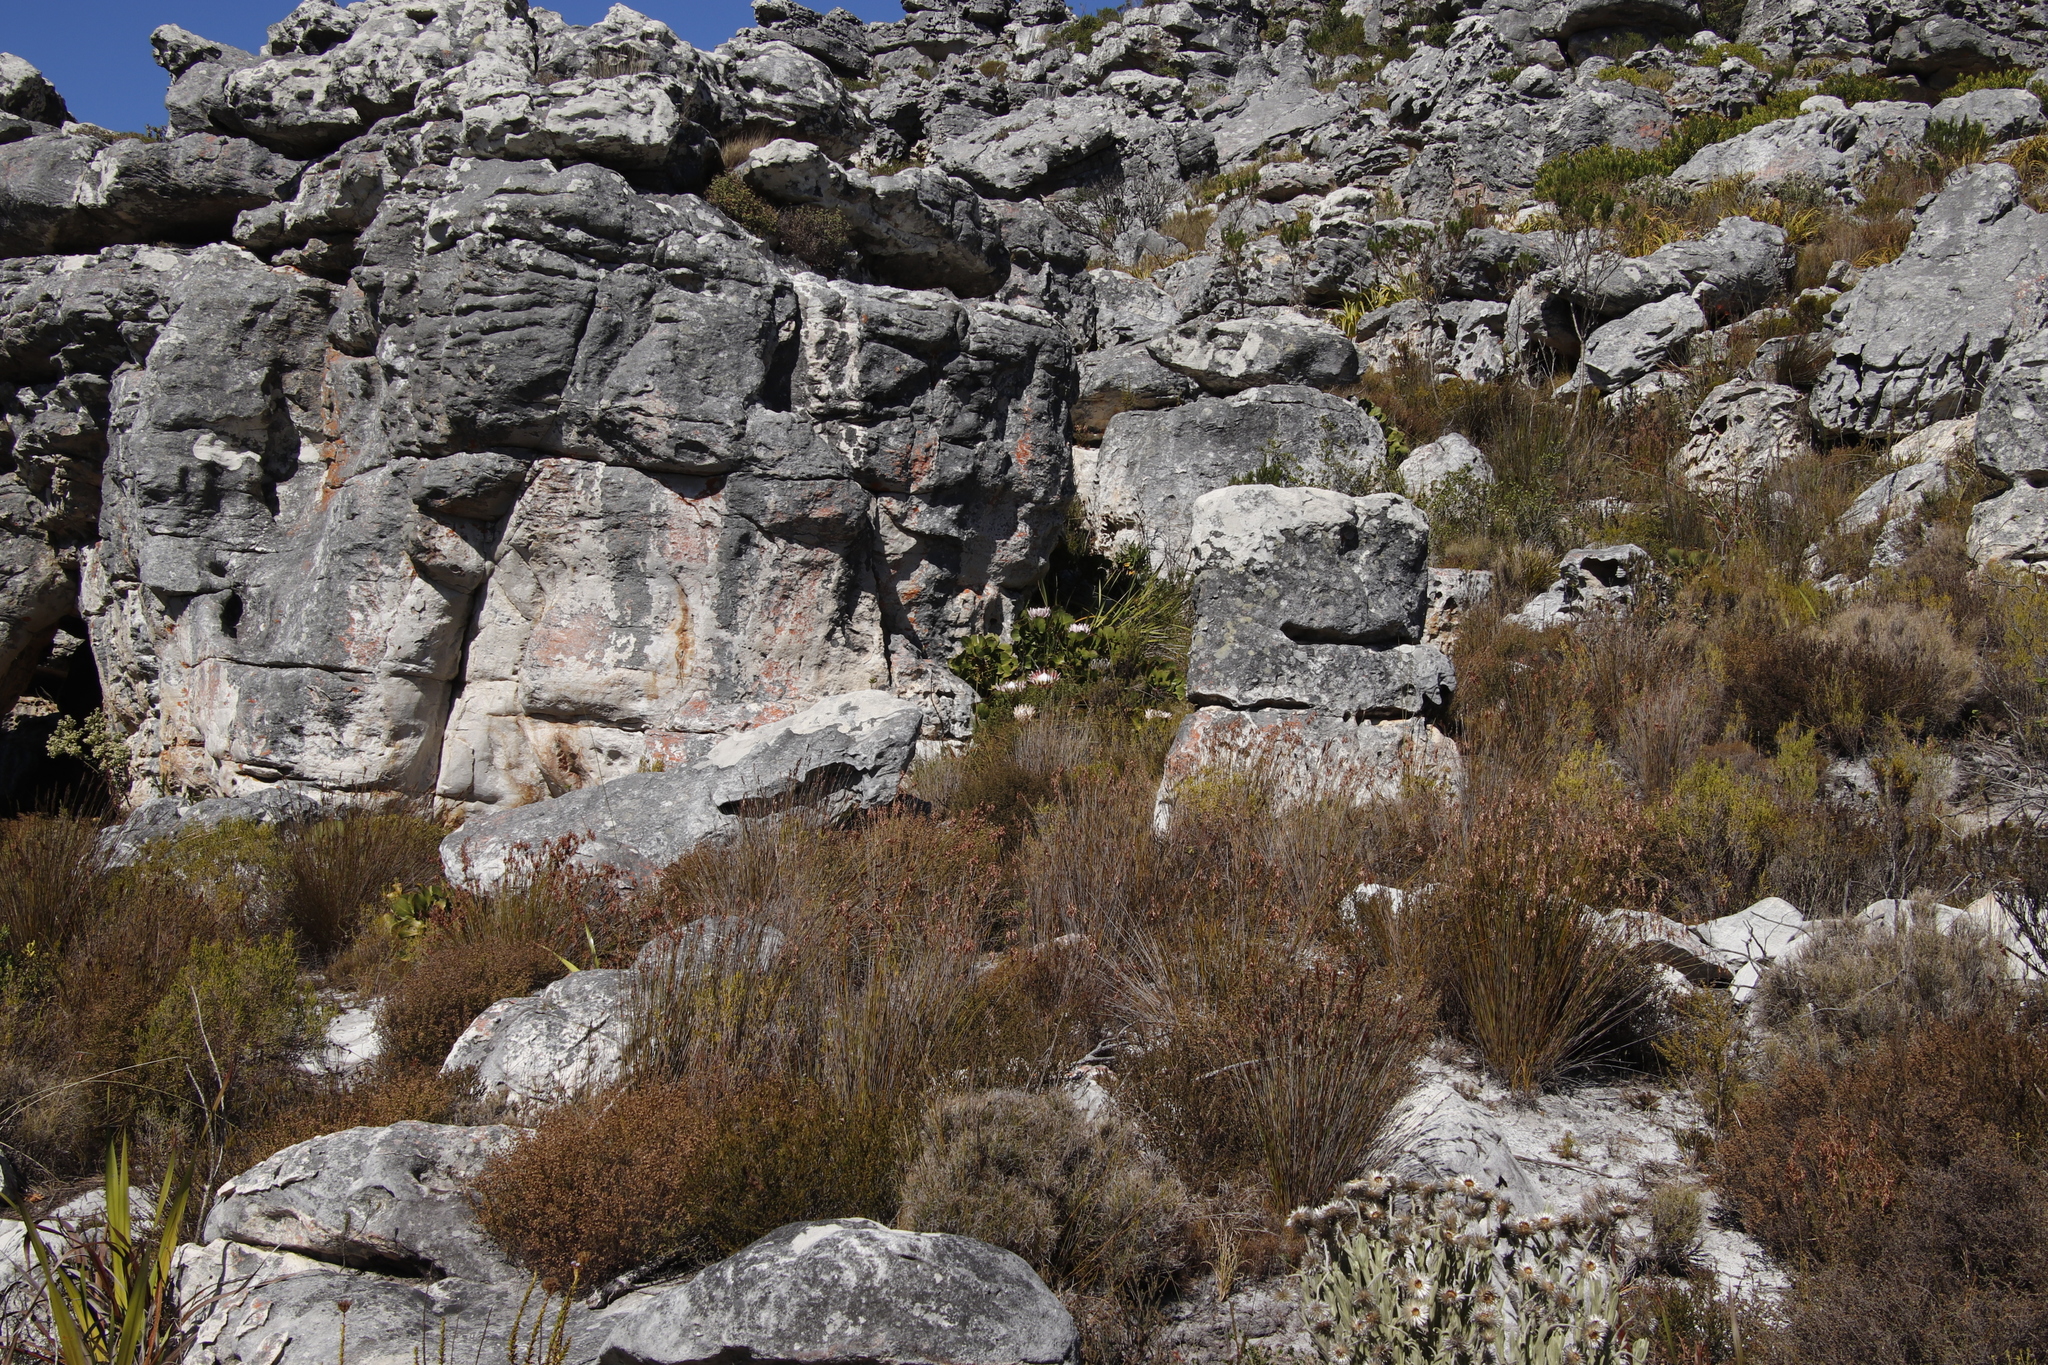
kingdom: Plantae
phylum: Tracheophyta
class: Magnoliopsida
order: Proteales
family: Proteaceae
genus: Protea
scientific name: Protea cynaroides
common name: King protea
